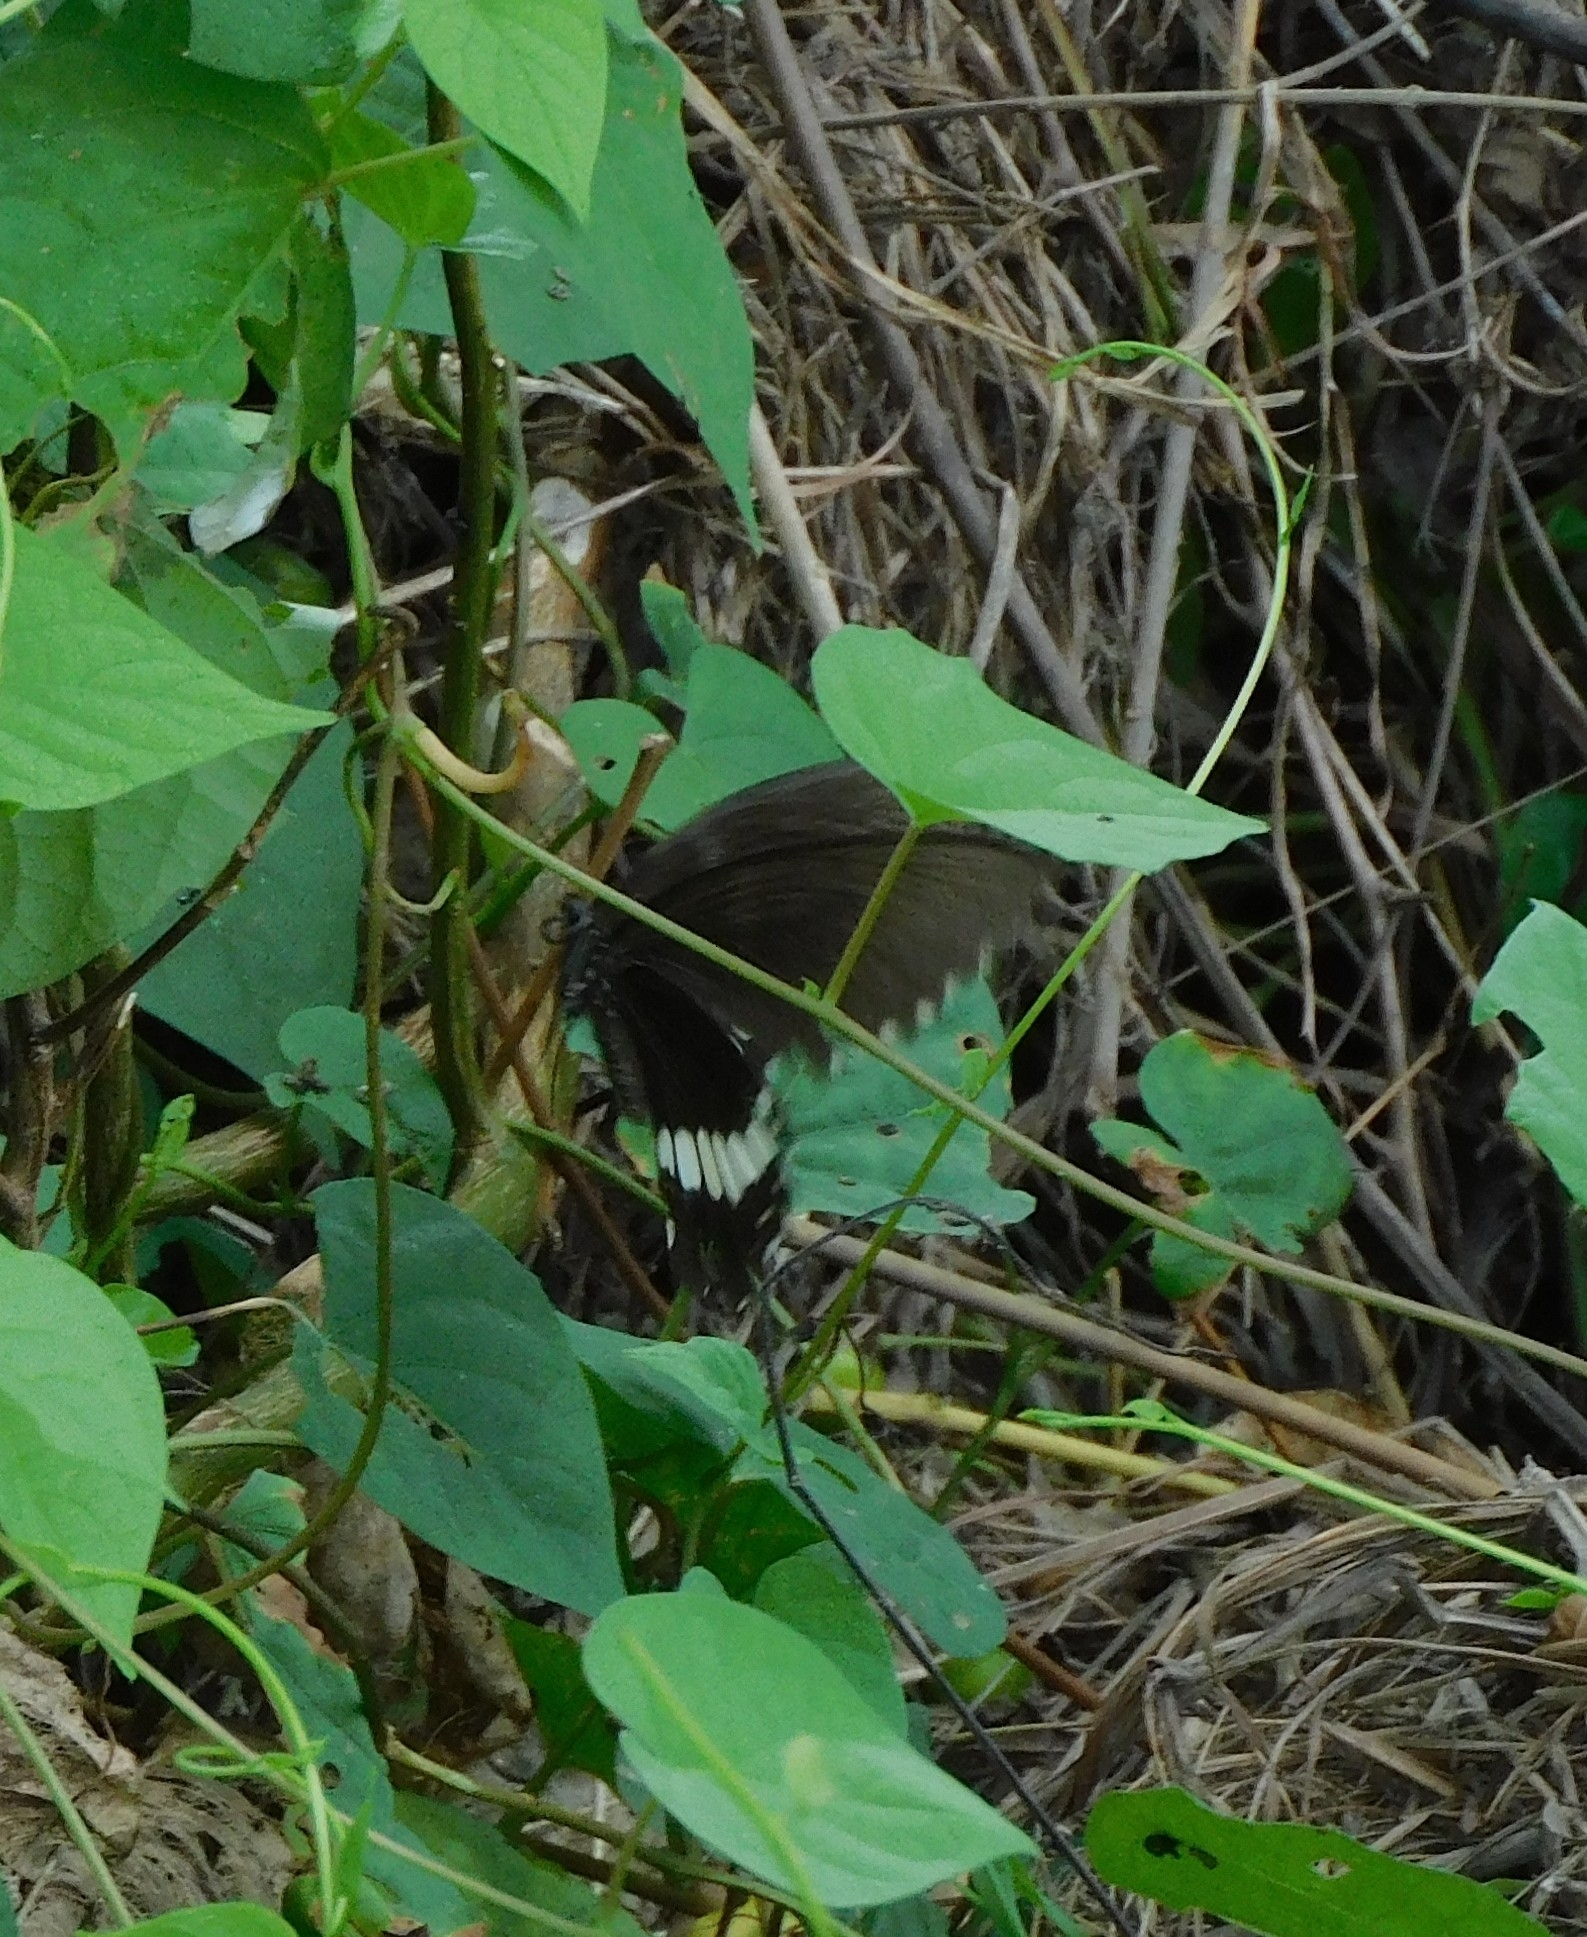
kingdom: Animalia
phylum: Arthropoda
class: Insecta
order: Lepidoptera
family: Papilionidae
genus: Papilio
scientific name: Papilio polytes
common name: Common mormon
